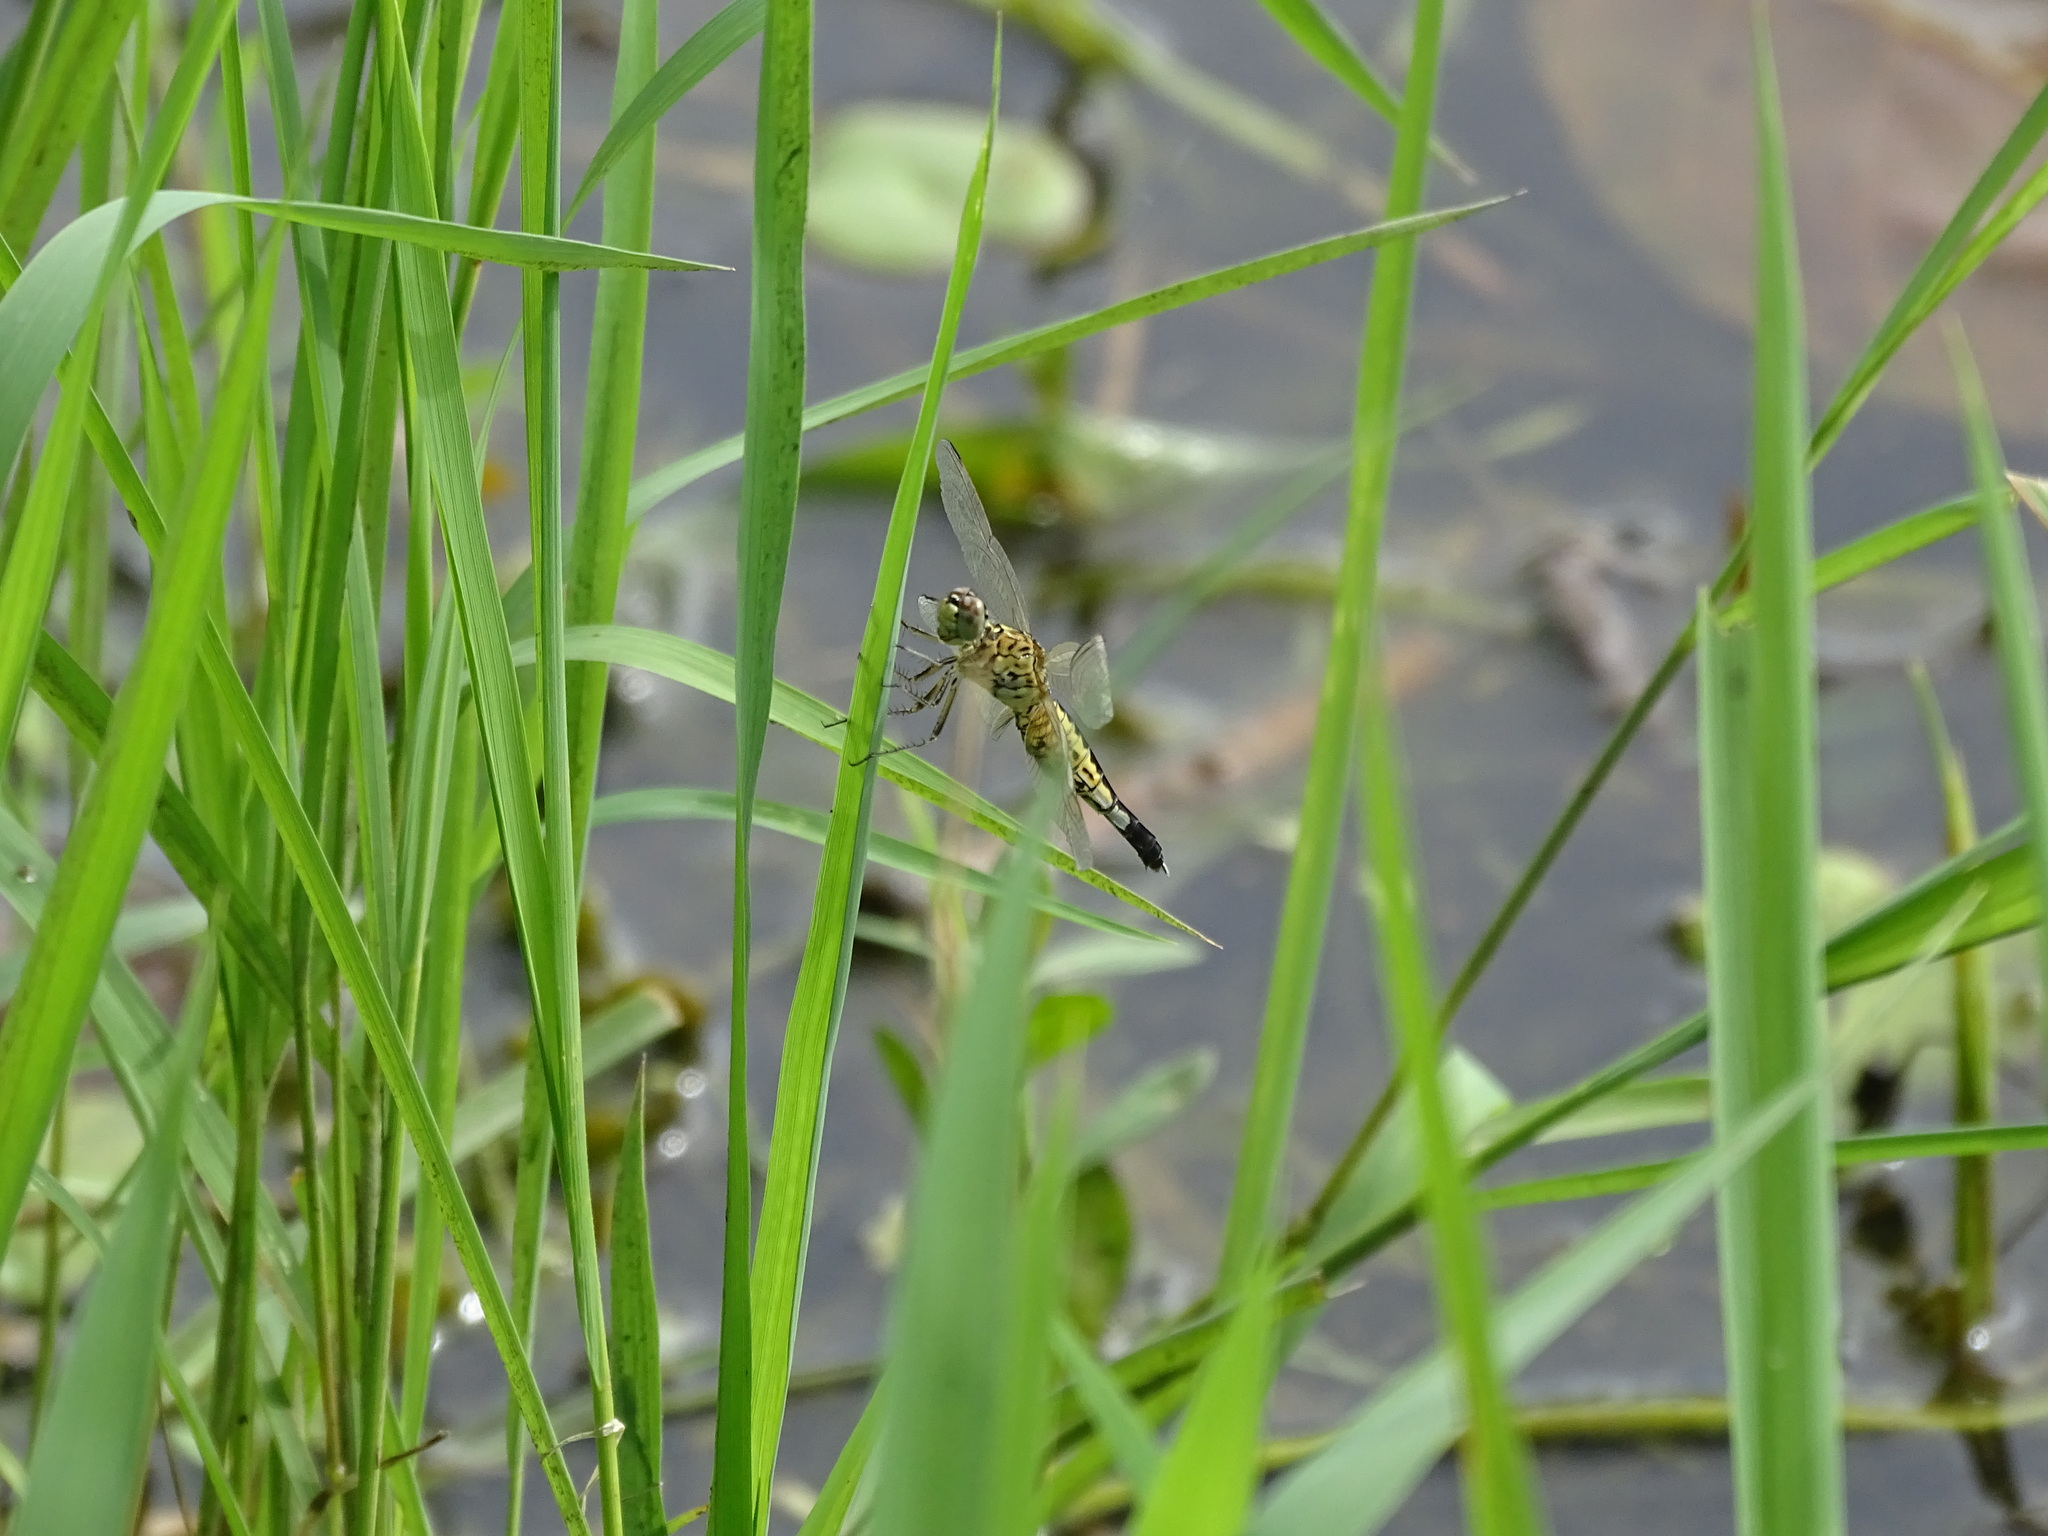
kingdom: Animalia
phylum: Arthropoda
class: Insecta
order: Odonata
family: Libellulidae
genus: Acisoma
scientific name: Acisoma panorpoides
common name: Asian pintail
